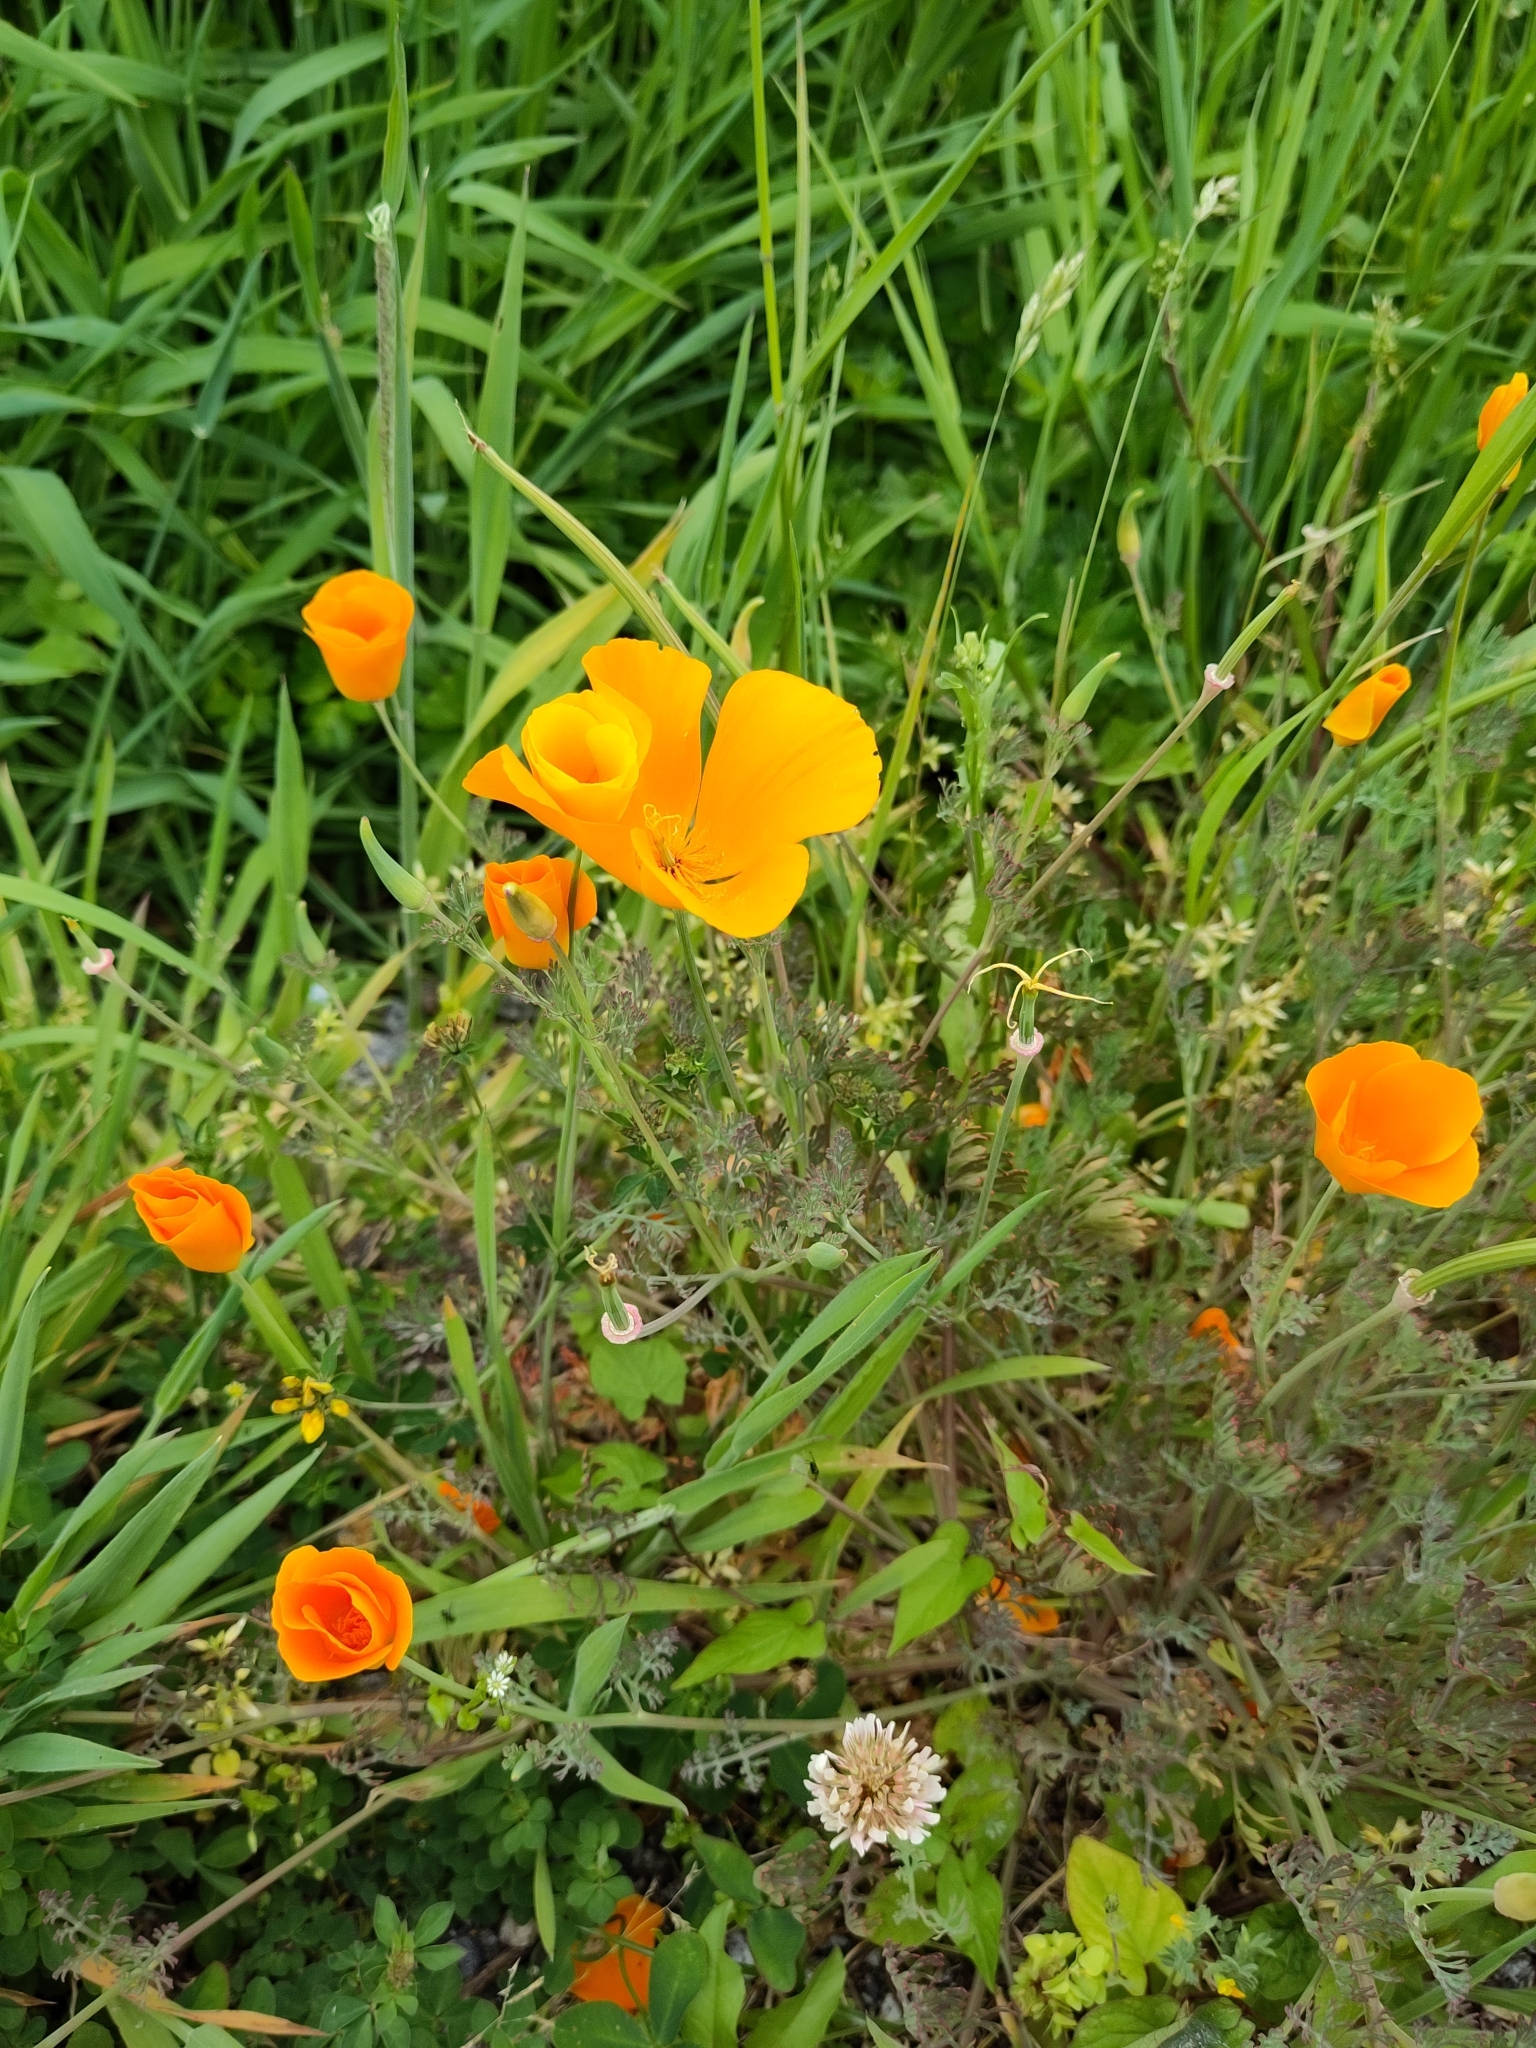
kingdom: Plantae
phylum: Tracheophyta
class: Magnoliopsida
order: Ranunculales
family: Papaveraceae
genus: Eschscholzia
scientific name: Eschscholzia californica
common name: California poppy
